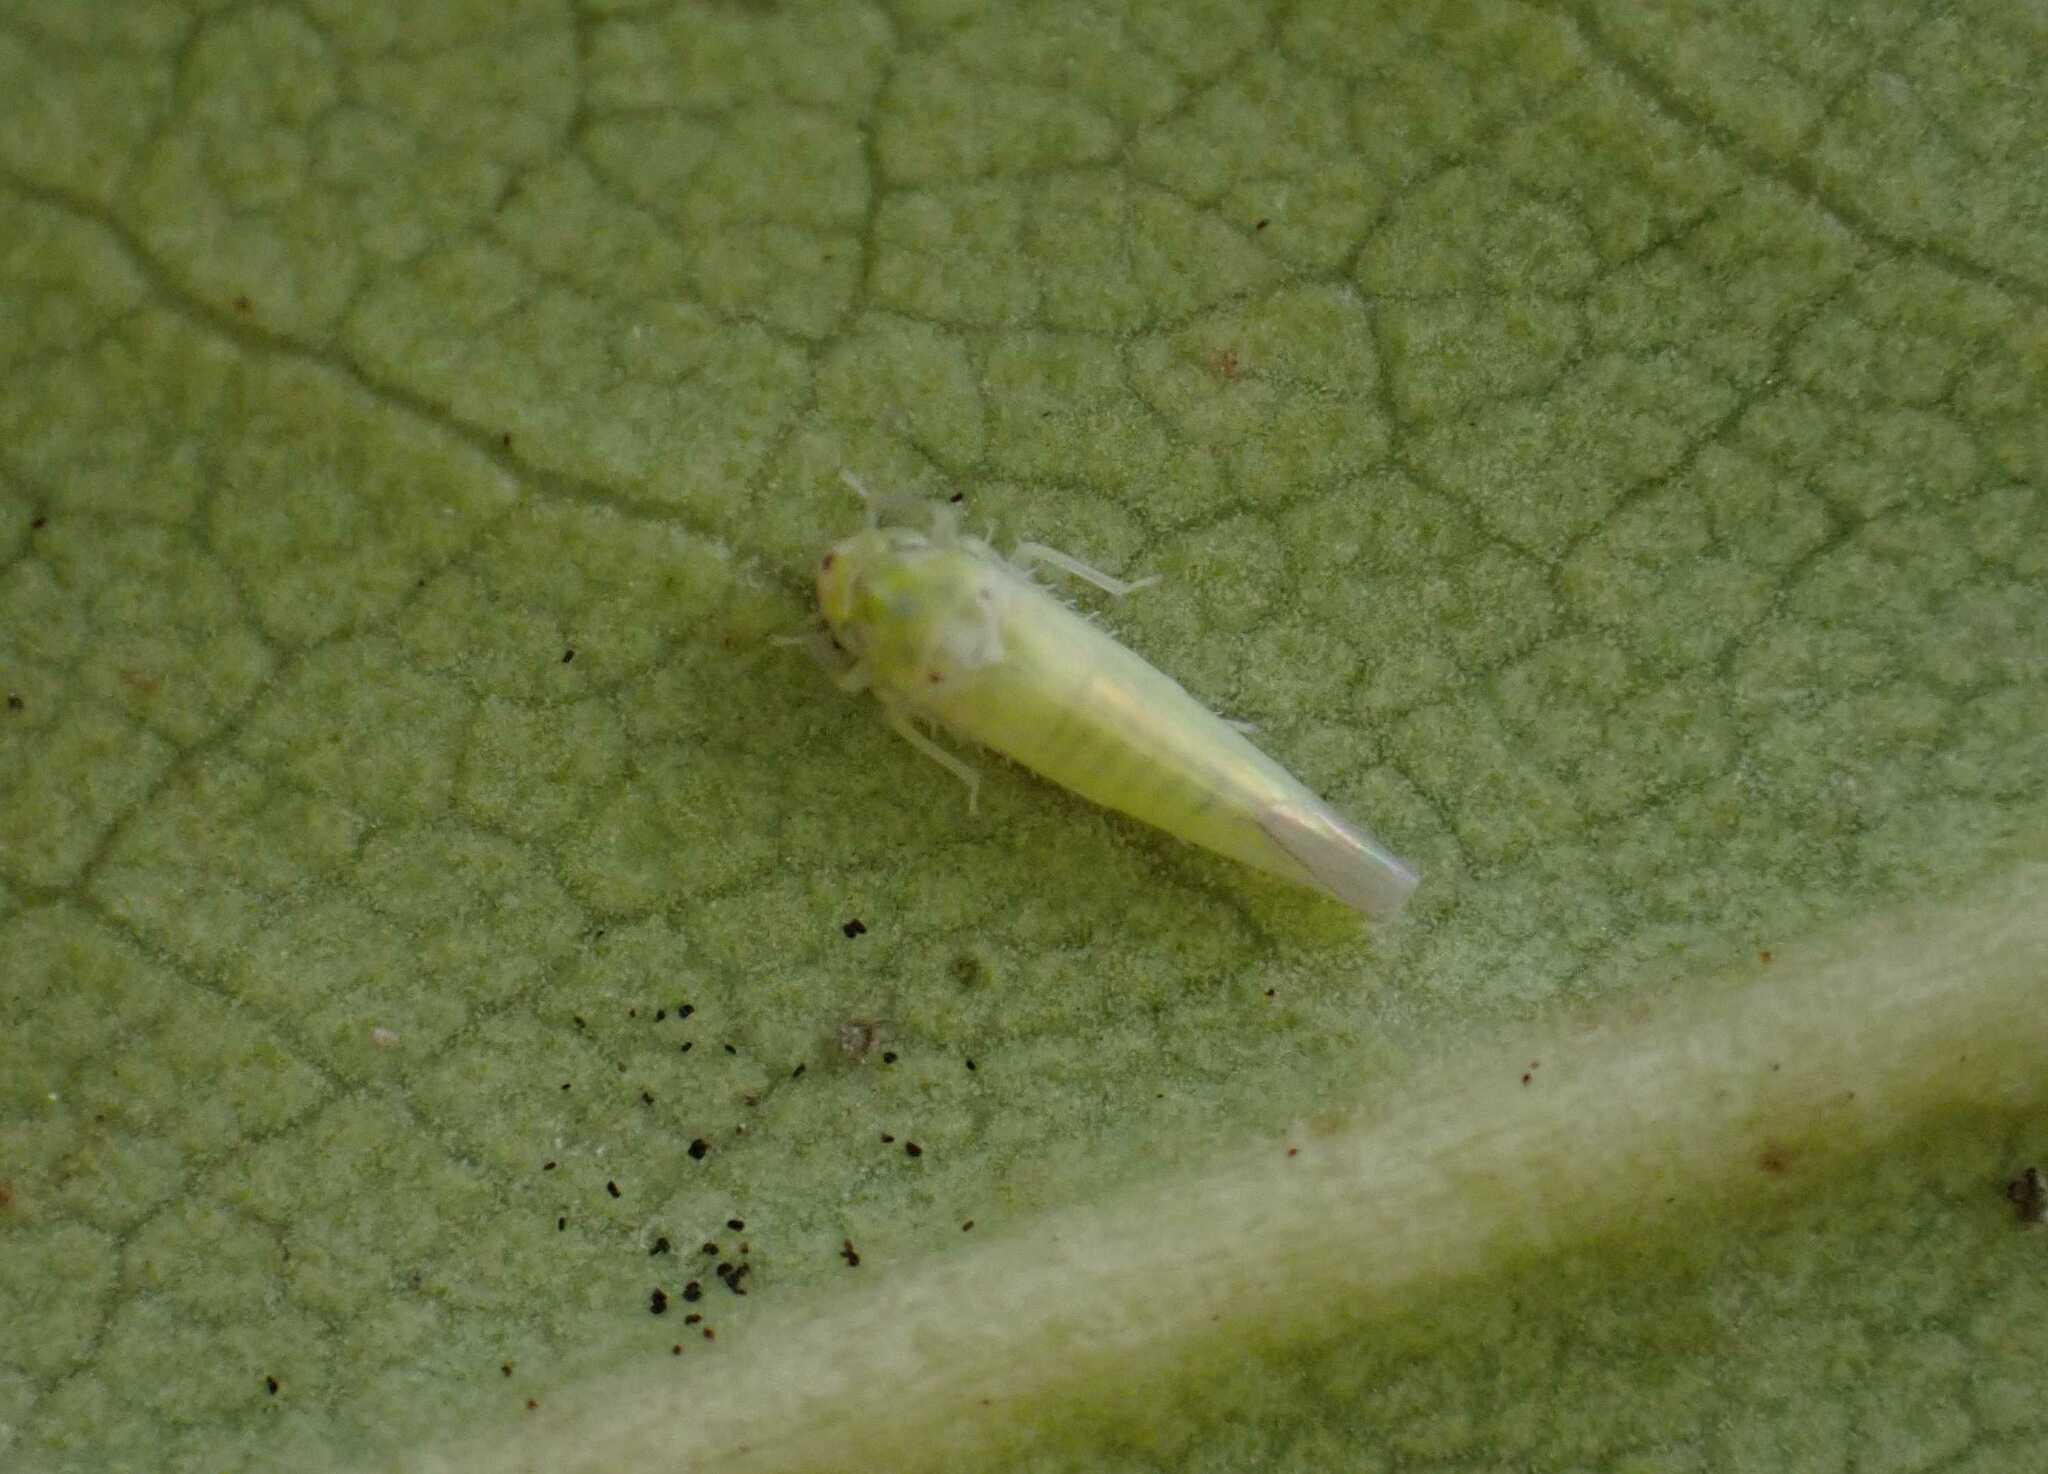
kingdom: Animalia
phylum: Arthropoda
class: Insecta
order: Hemiptera
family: Cicadellidae
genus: Zygina
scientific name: Zygina nivea
